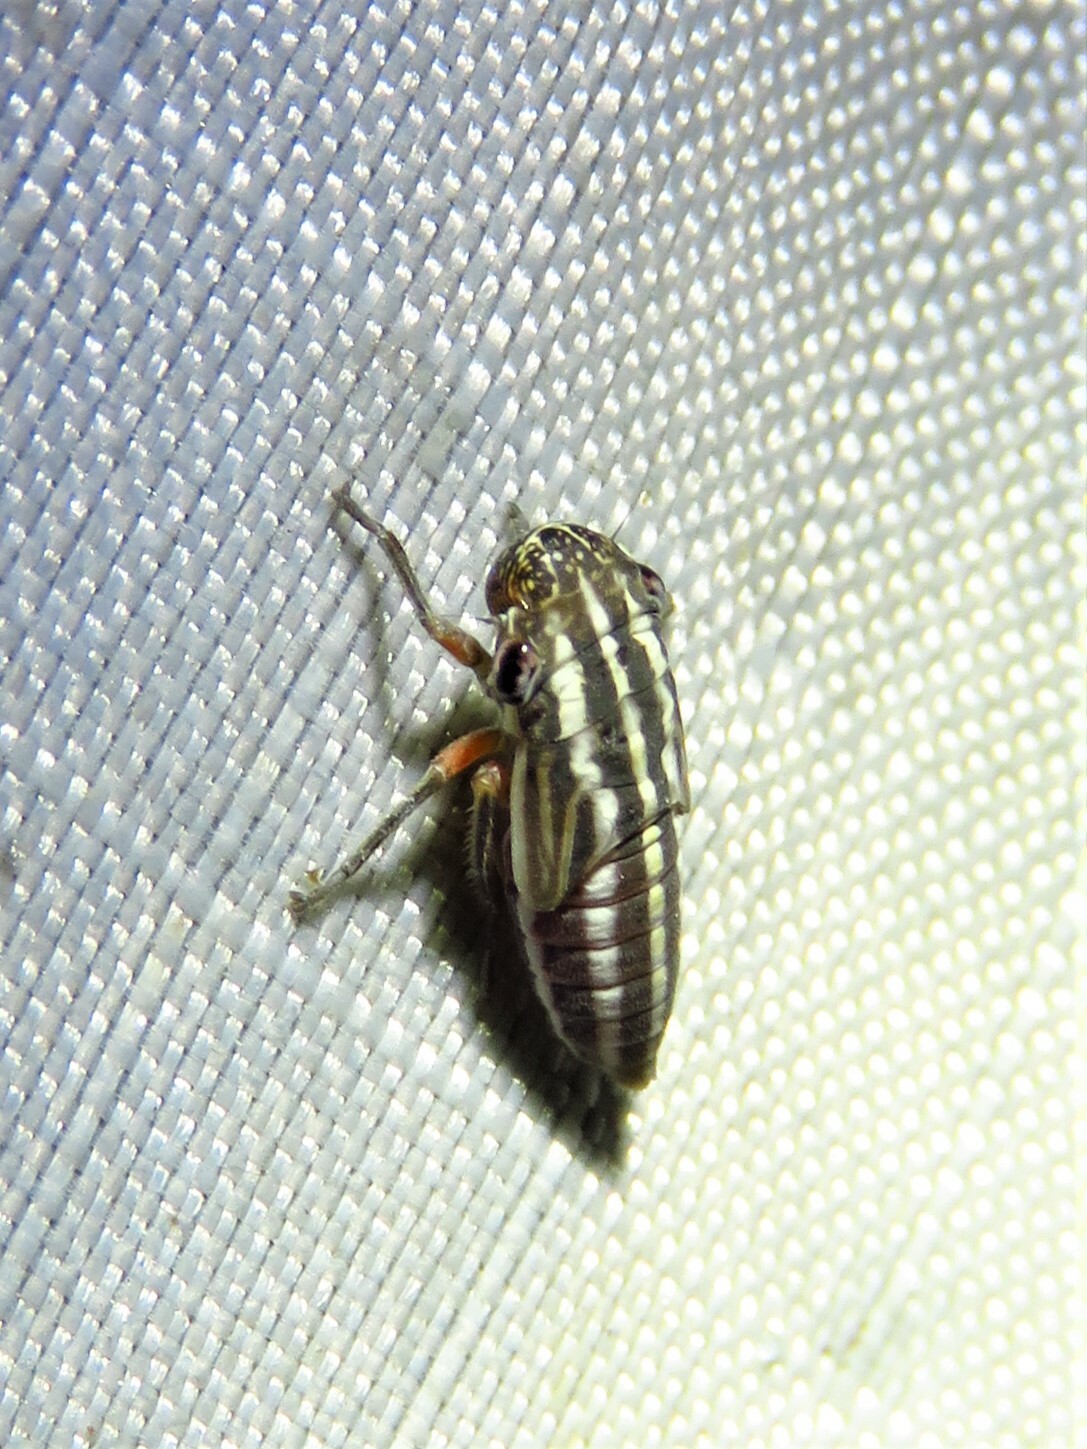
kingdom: Animalia
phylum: Arthropoda
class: Insecta
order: Hemiptera
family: Cicadellidae
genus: Cuerna
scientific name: Cuerna costalis
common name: Lateral-lined sharpshooter
